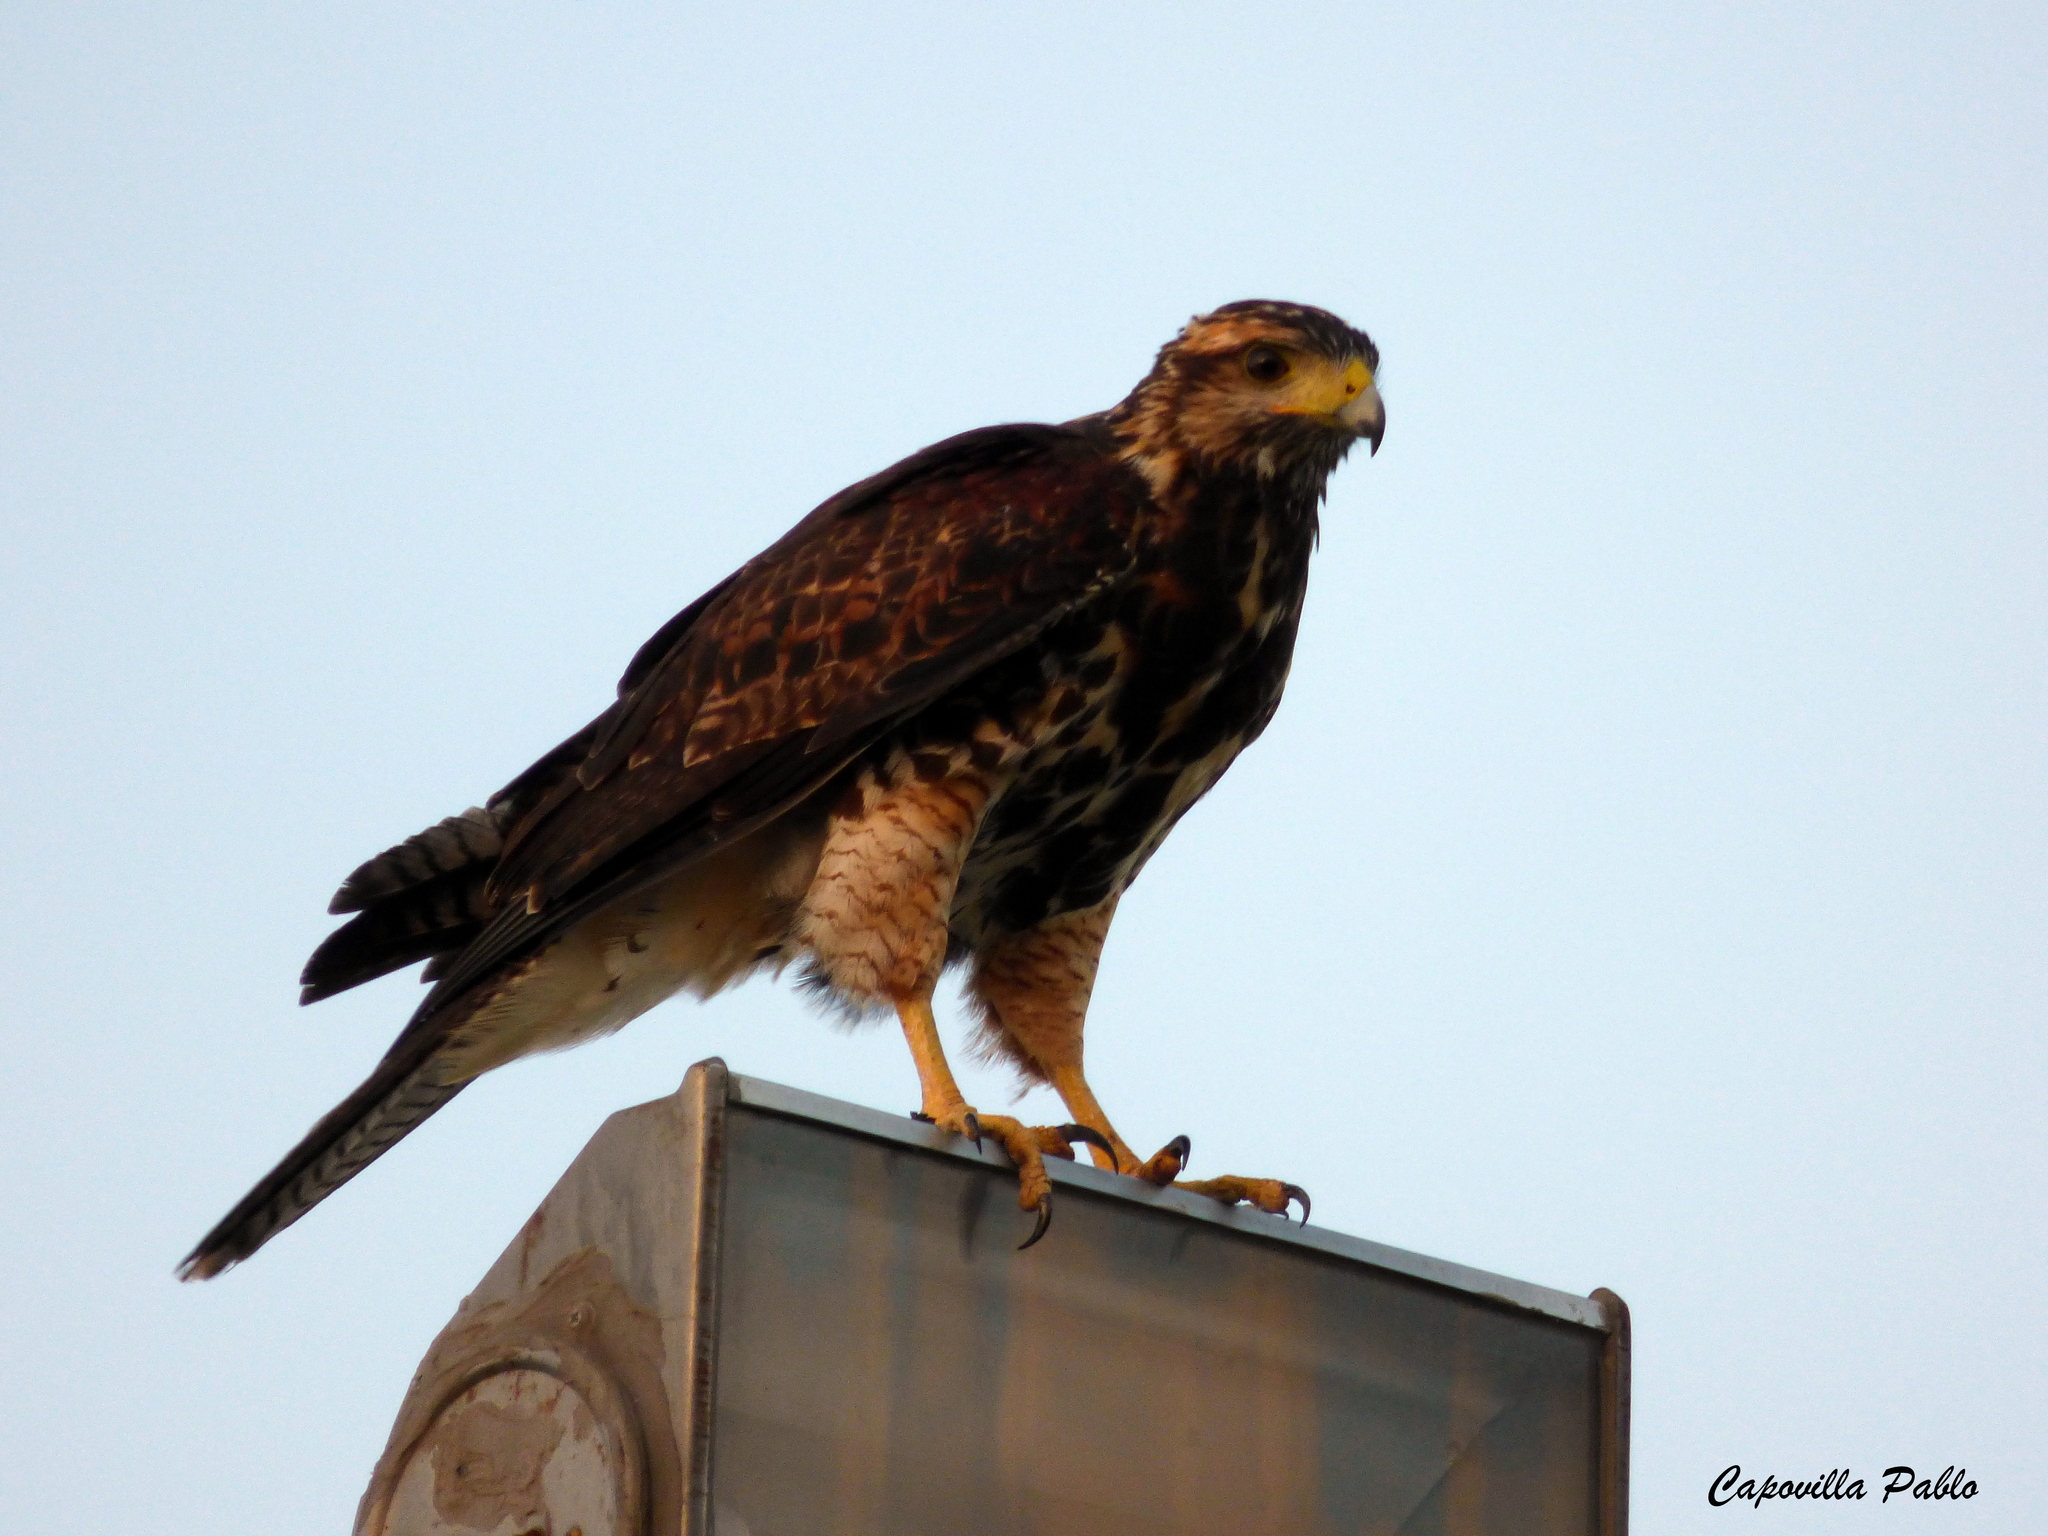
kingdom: Animalia
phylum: Chordata
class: Aves
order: Accipitriformes
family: Accipitridae
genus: Parabuteo
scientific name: Parabuteo unicinctus
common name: Harris's hawk
